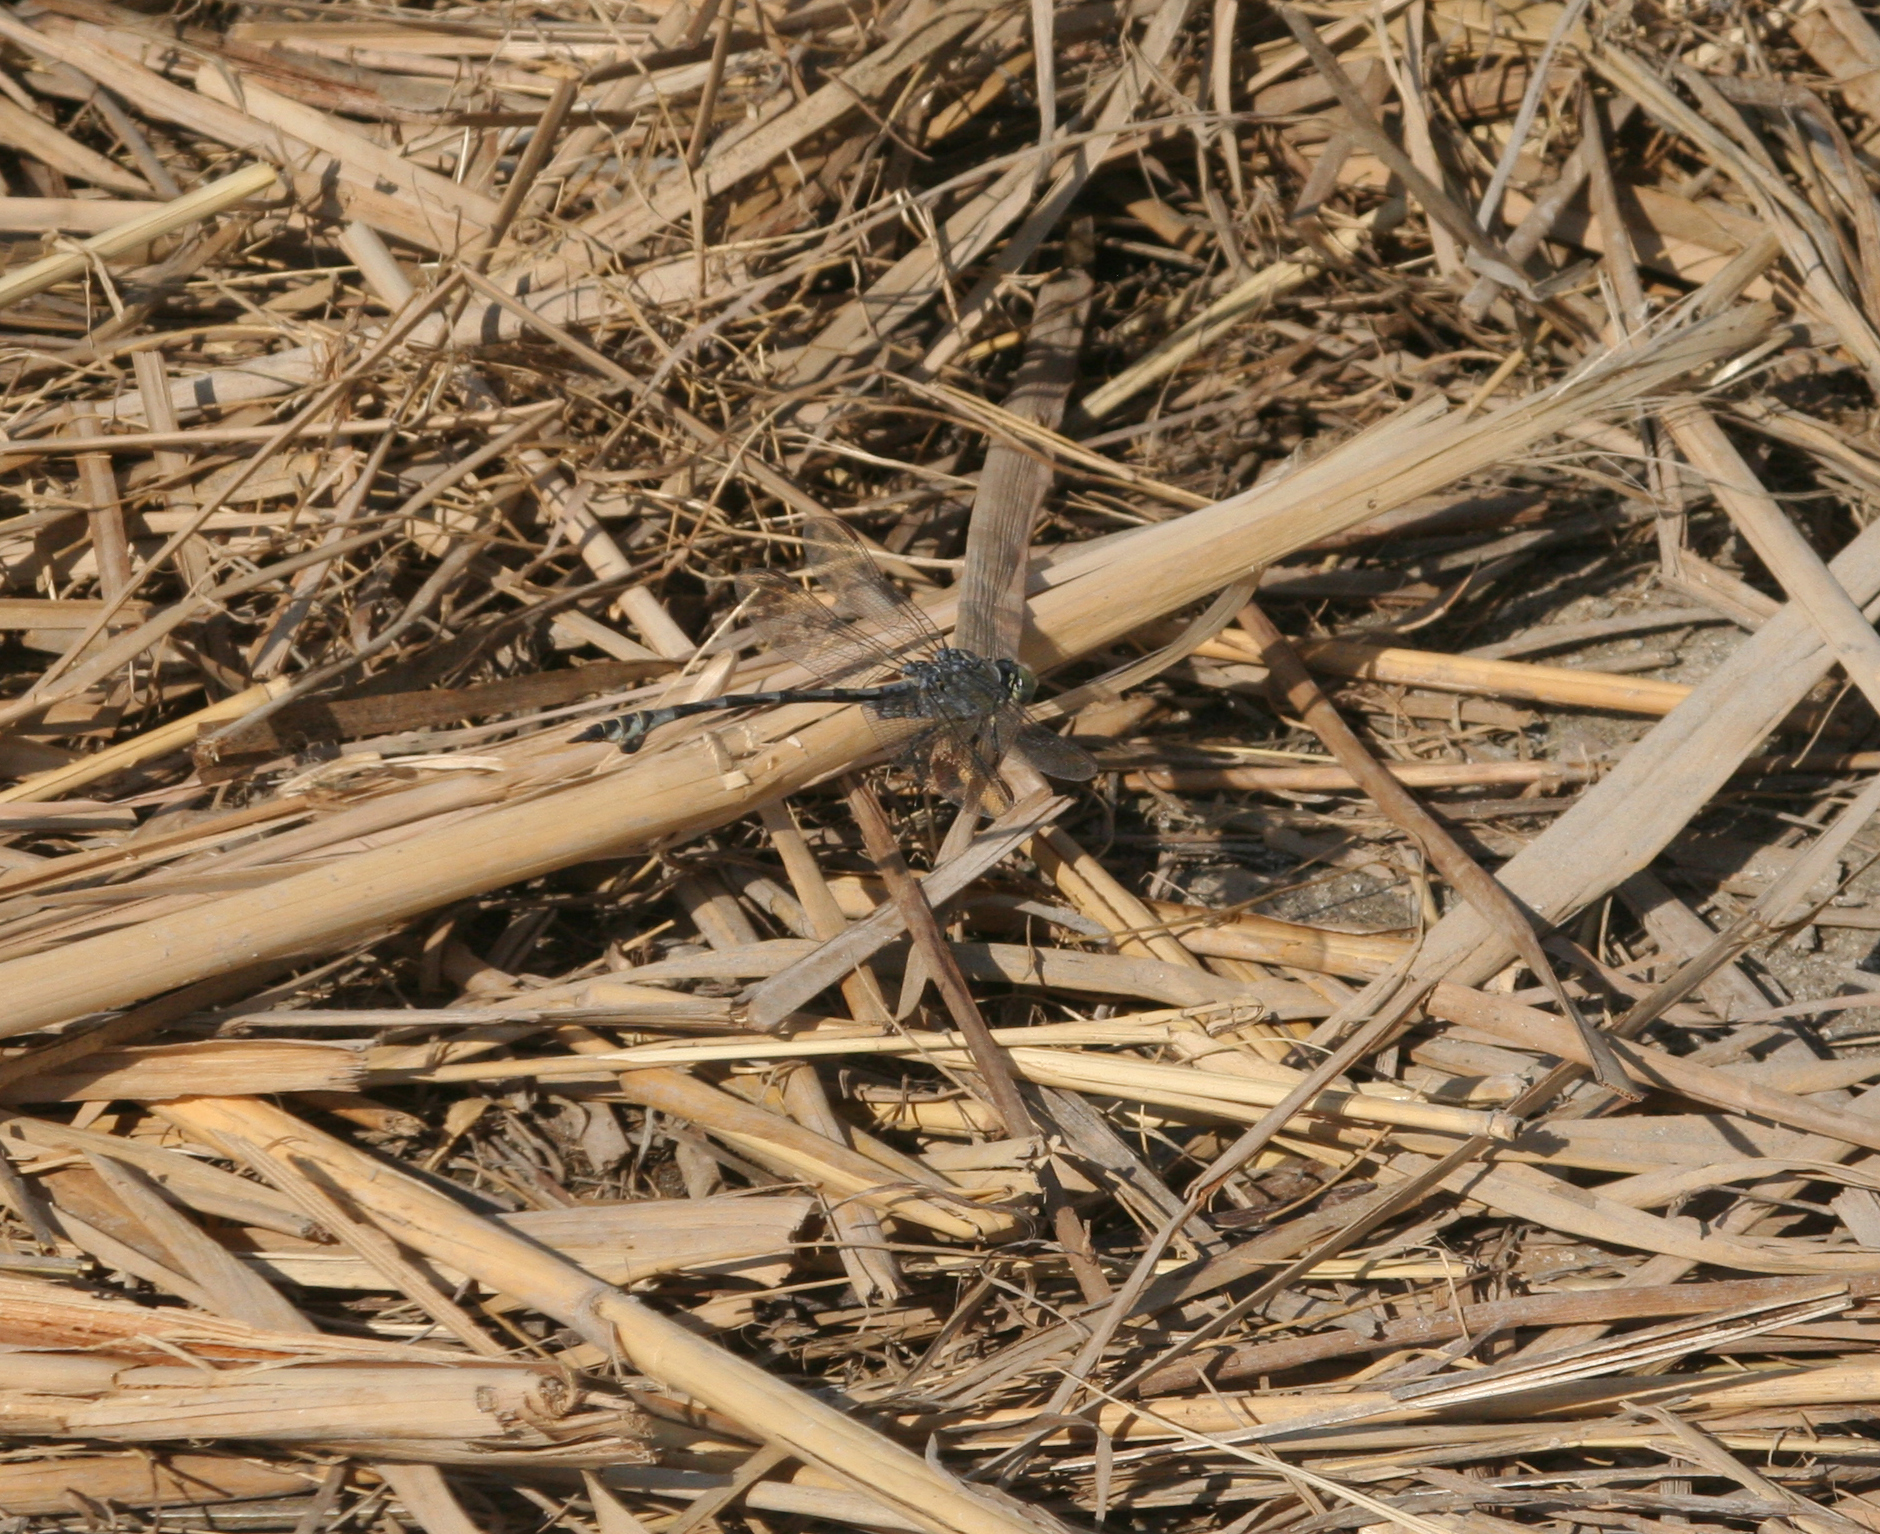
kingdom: Animalia
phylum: Arthropoda
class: Insecta
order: Odonata
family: Gomphidae
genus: Lindenia
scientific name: Lindenia tetraphylla
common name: Bladetail
